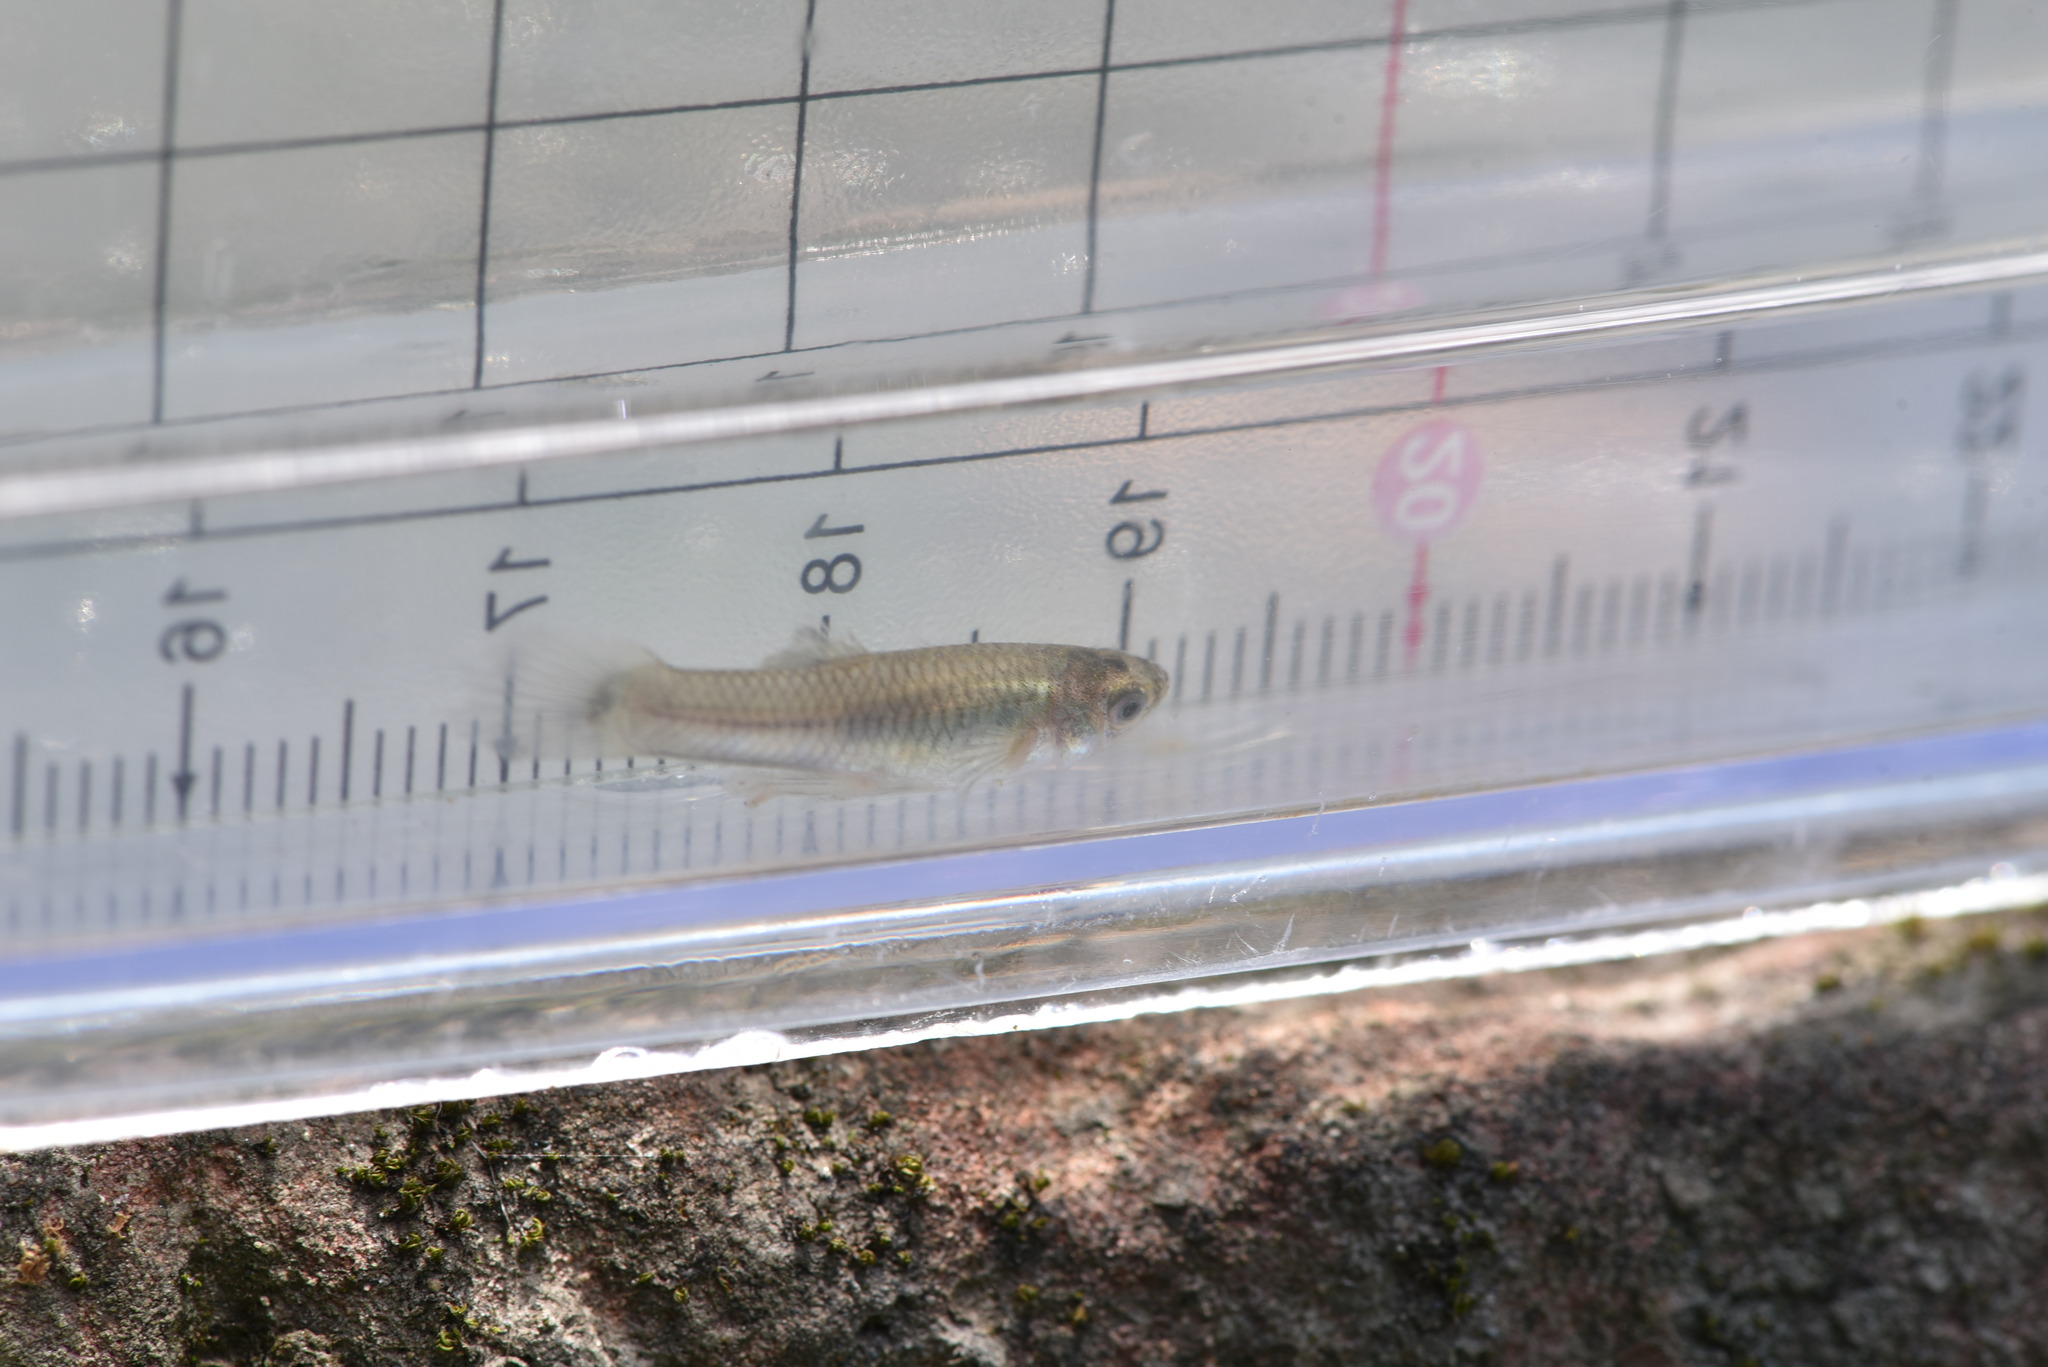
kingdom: Animalia
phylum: Chordata
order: Cyprinodontiformes
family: Poeciliidae
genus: Gambusia
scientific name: Gambusia affinis
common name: Mosquitofish
